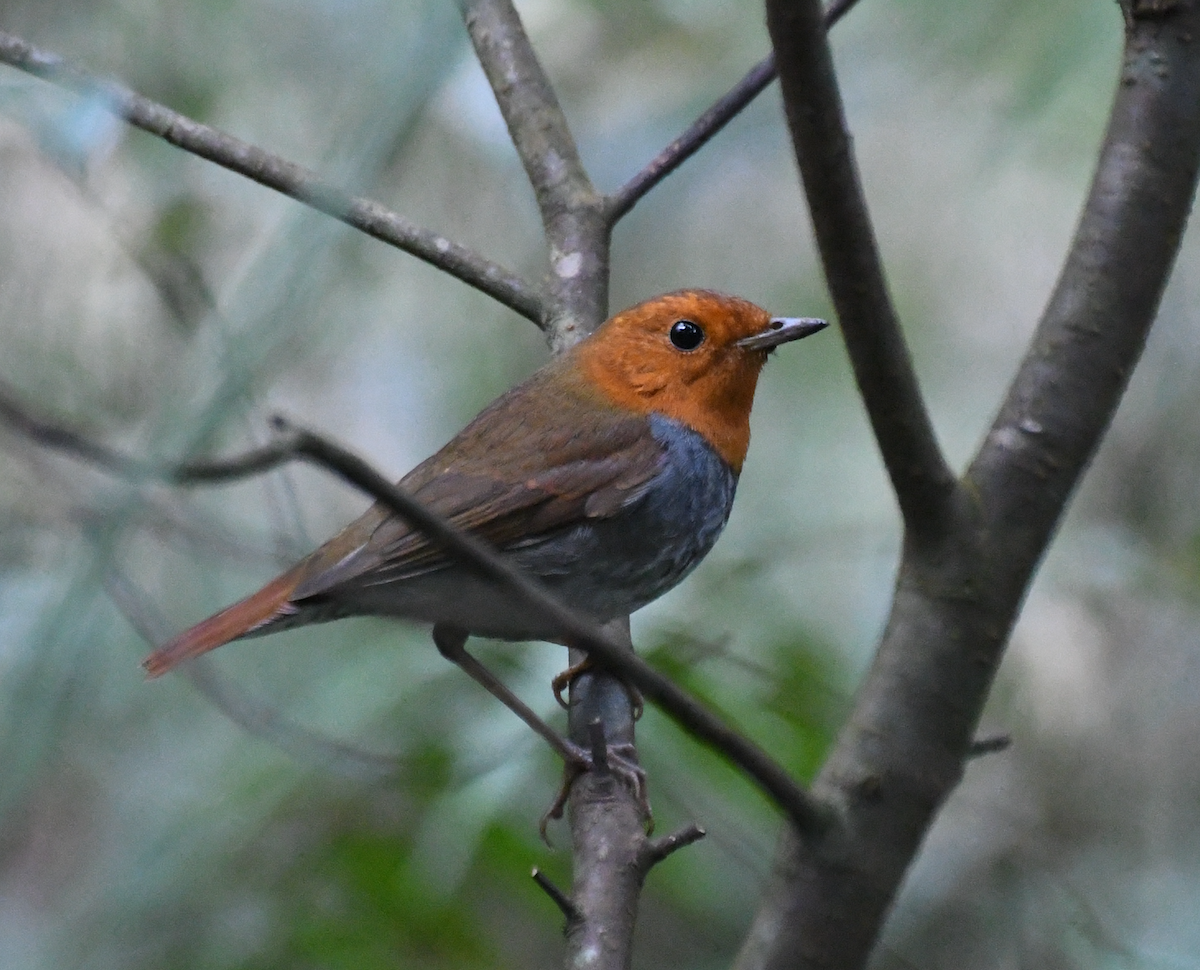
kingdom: Animalia
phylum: Chordata
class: Aves
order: Passeriformes
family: Muscicapidae
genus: Erithacus
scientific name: Erithacus akahige
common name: Japanese robin
